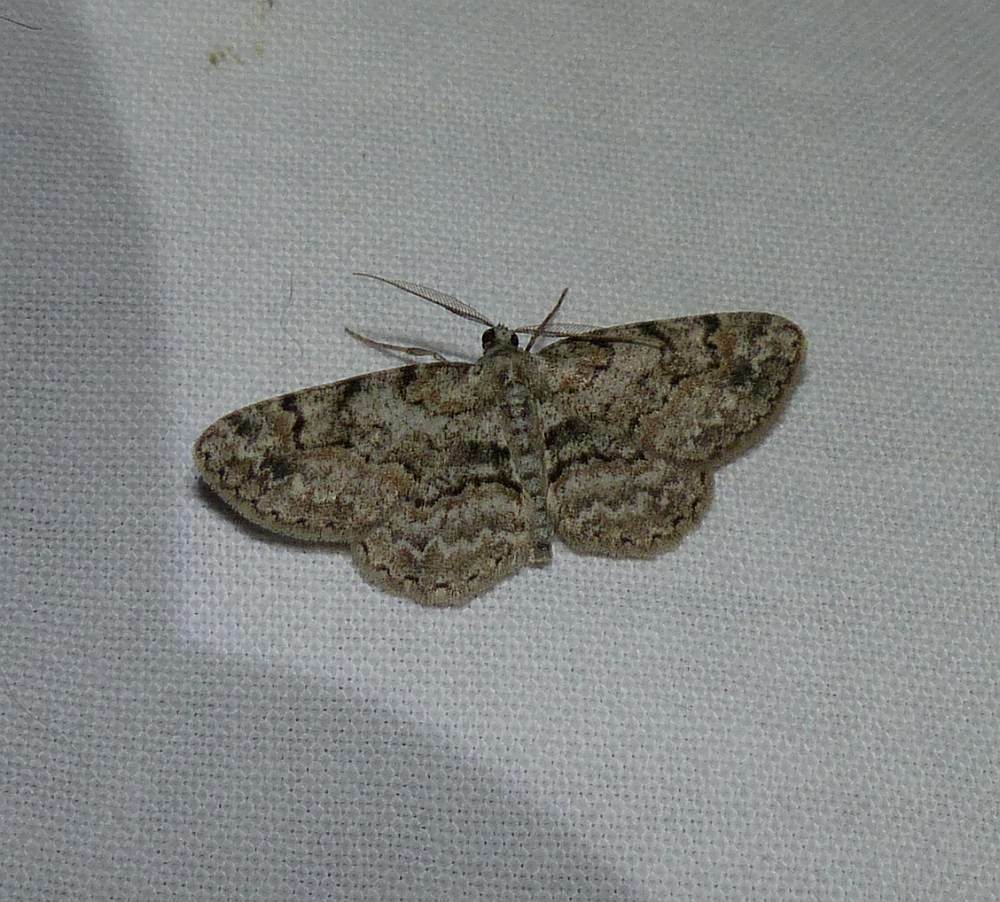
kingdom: Animalia
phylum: Arthropoda
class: Insecta
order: Lepidoptera
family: Geometridae
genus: Iridopsis
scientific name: Iridopsis ephyraria
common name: Pale-winged gray
